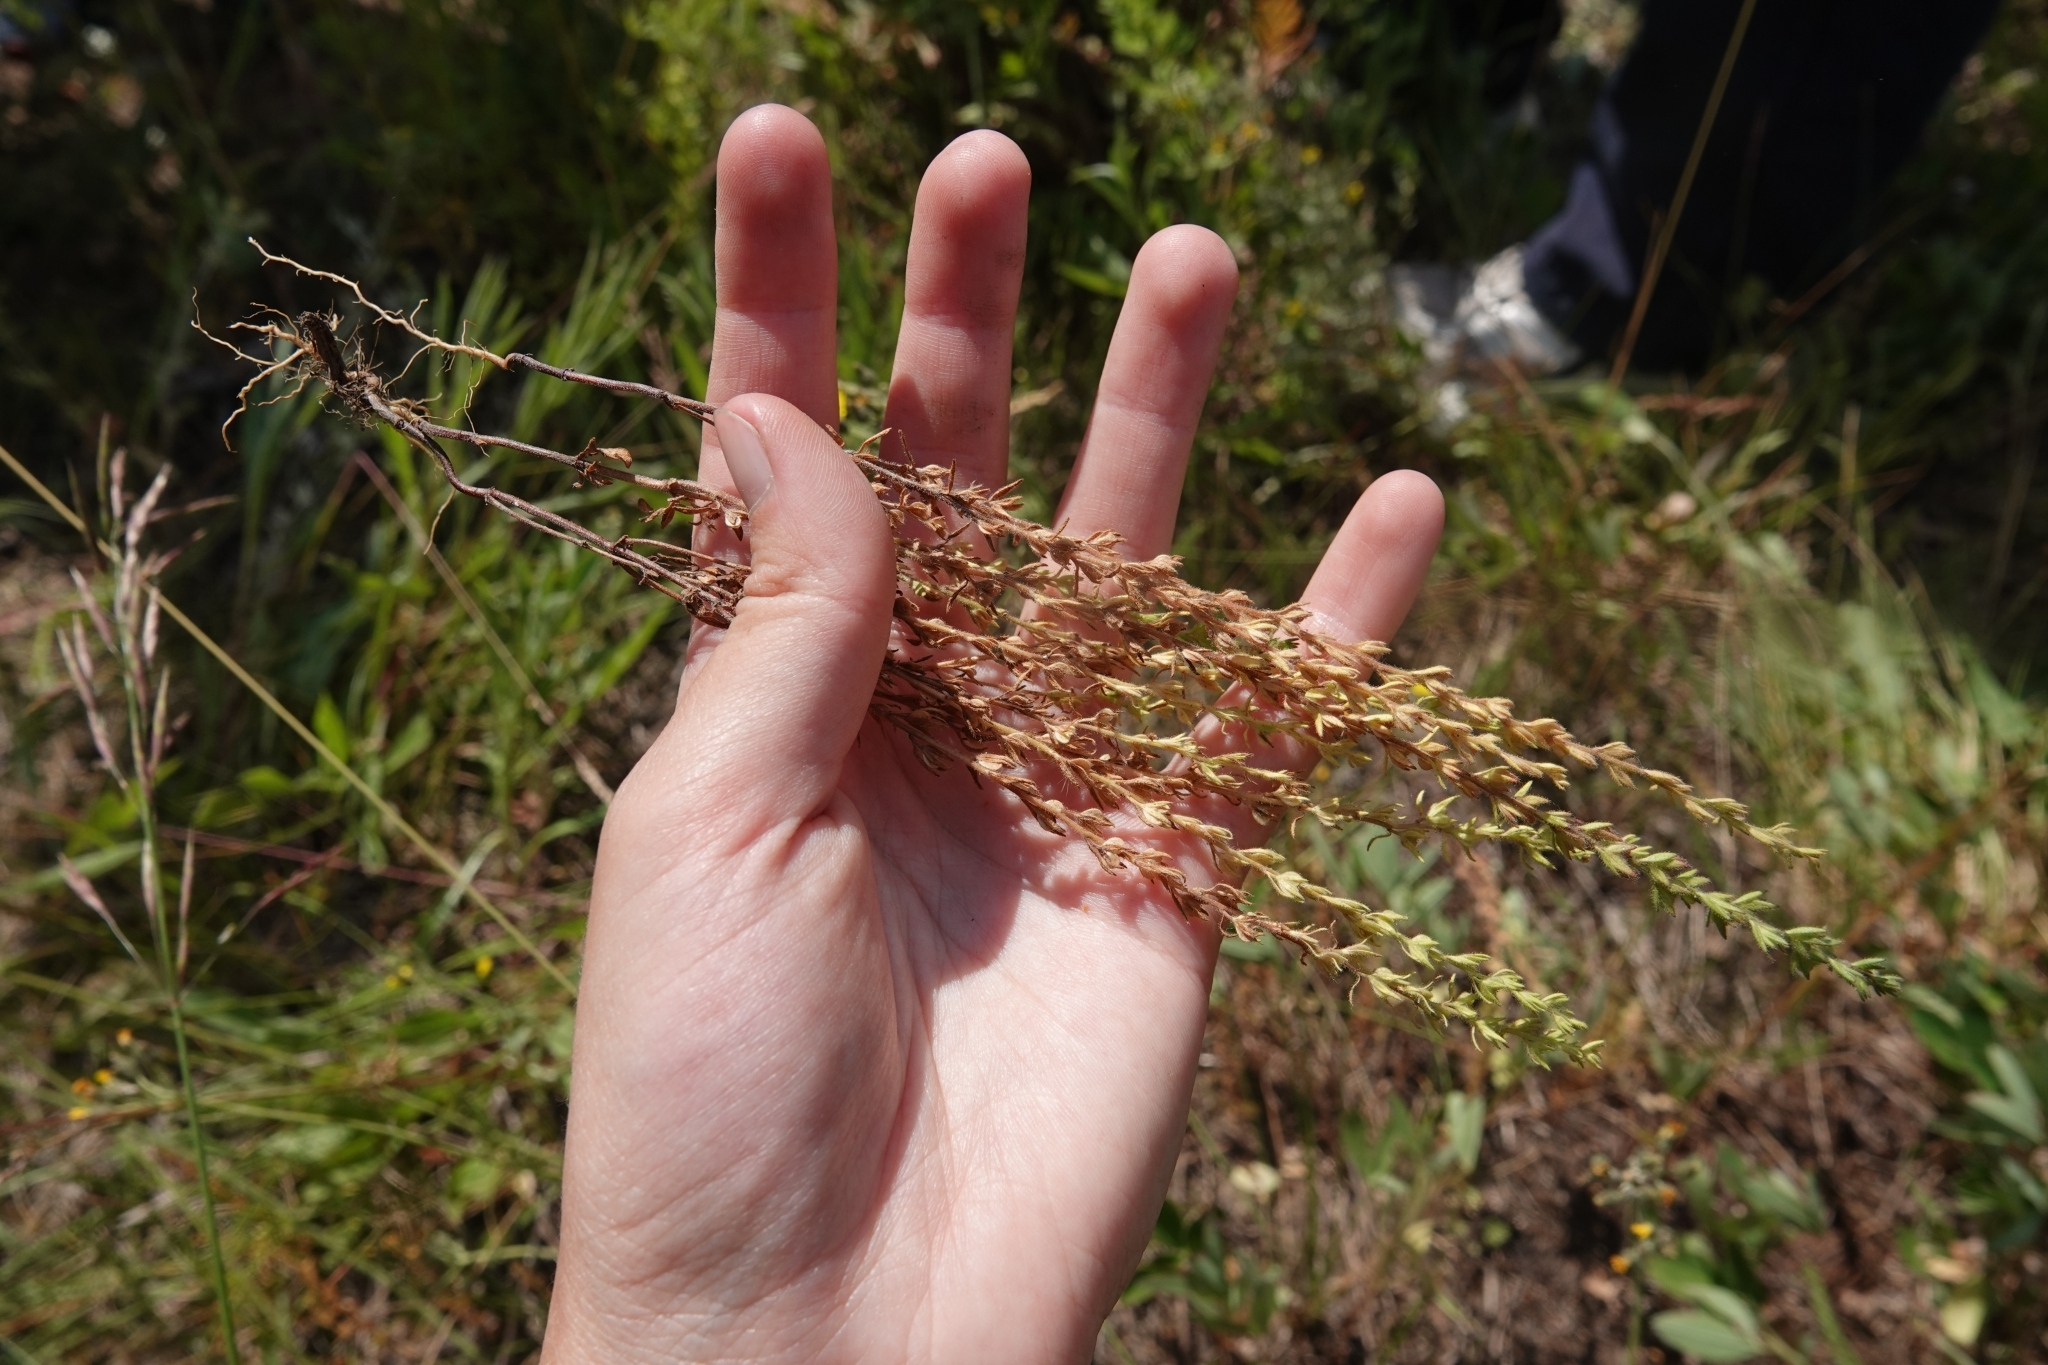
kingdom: Plantae
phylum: Tracheophyta
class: Magnoliopsida
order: Lamiales
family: Plantaginaceae
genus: Veronica
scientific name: Veronica arvensis
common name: Corn speedwell
